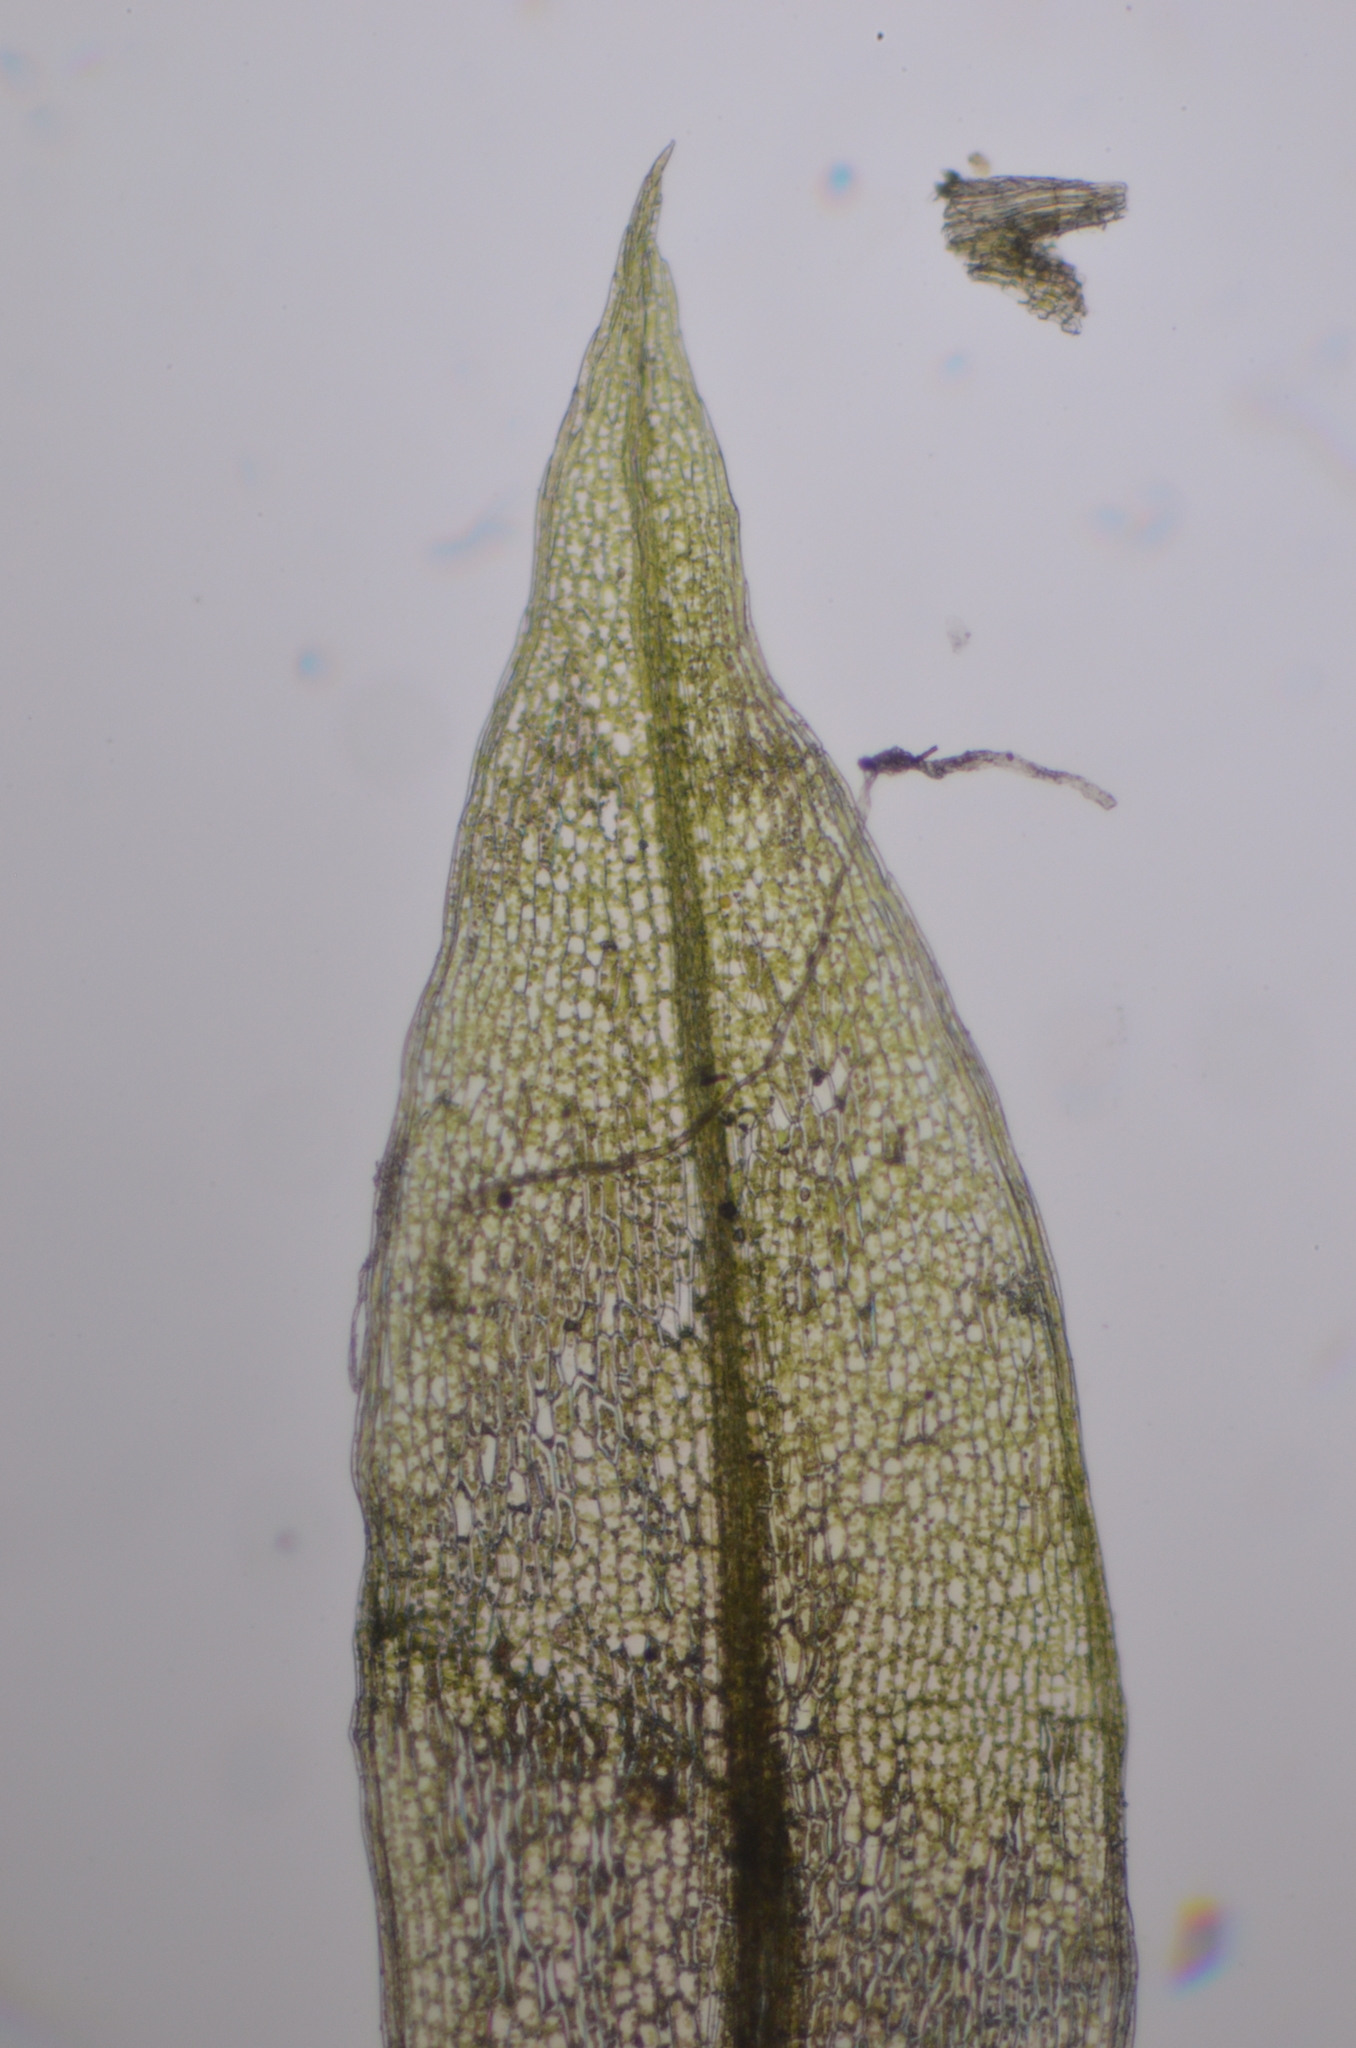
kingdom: Plantae
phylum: Bryophyta
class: Bryopsida
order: Bryales
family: Bryaceae
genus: Ptychostomum
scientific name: Ptychostomum pseudotriquetrum
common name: Long-leaved thread moss
